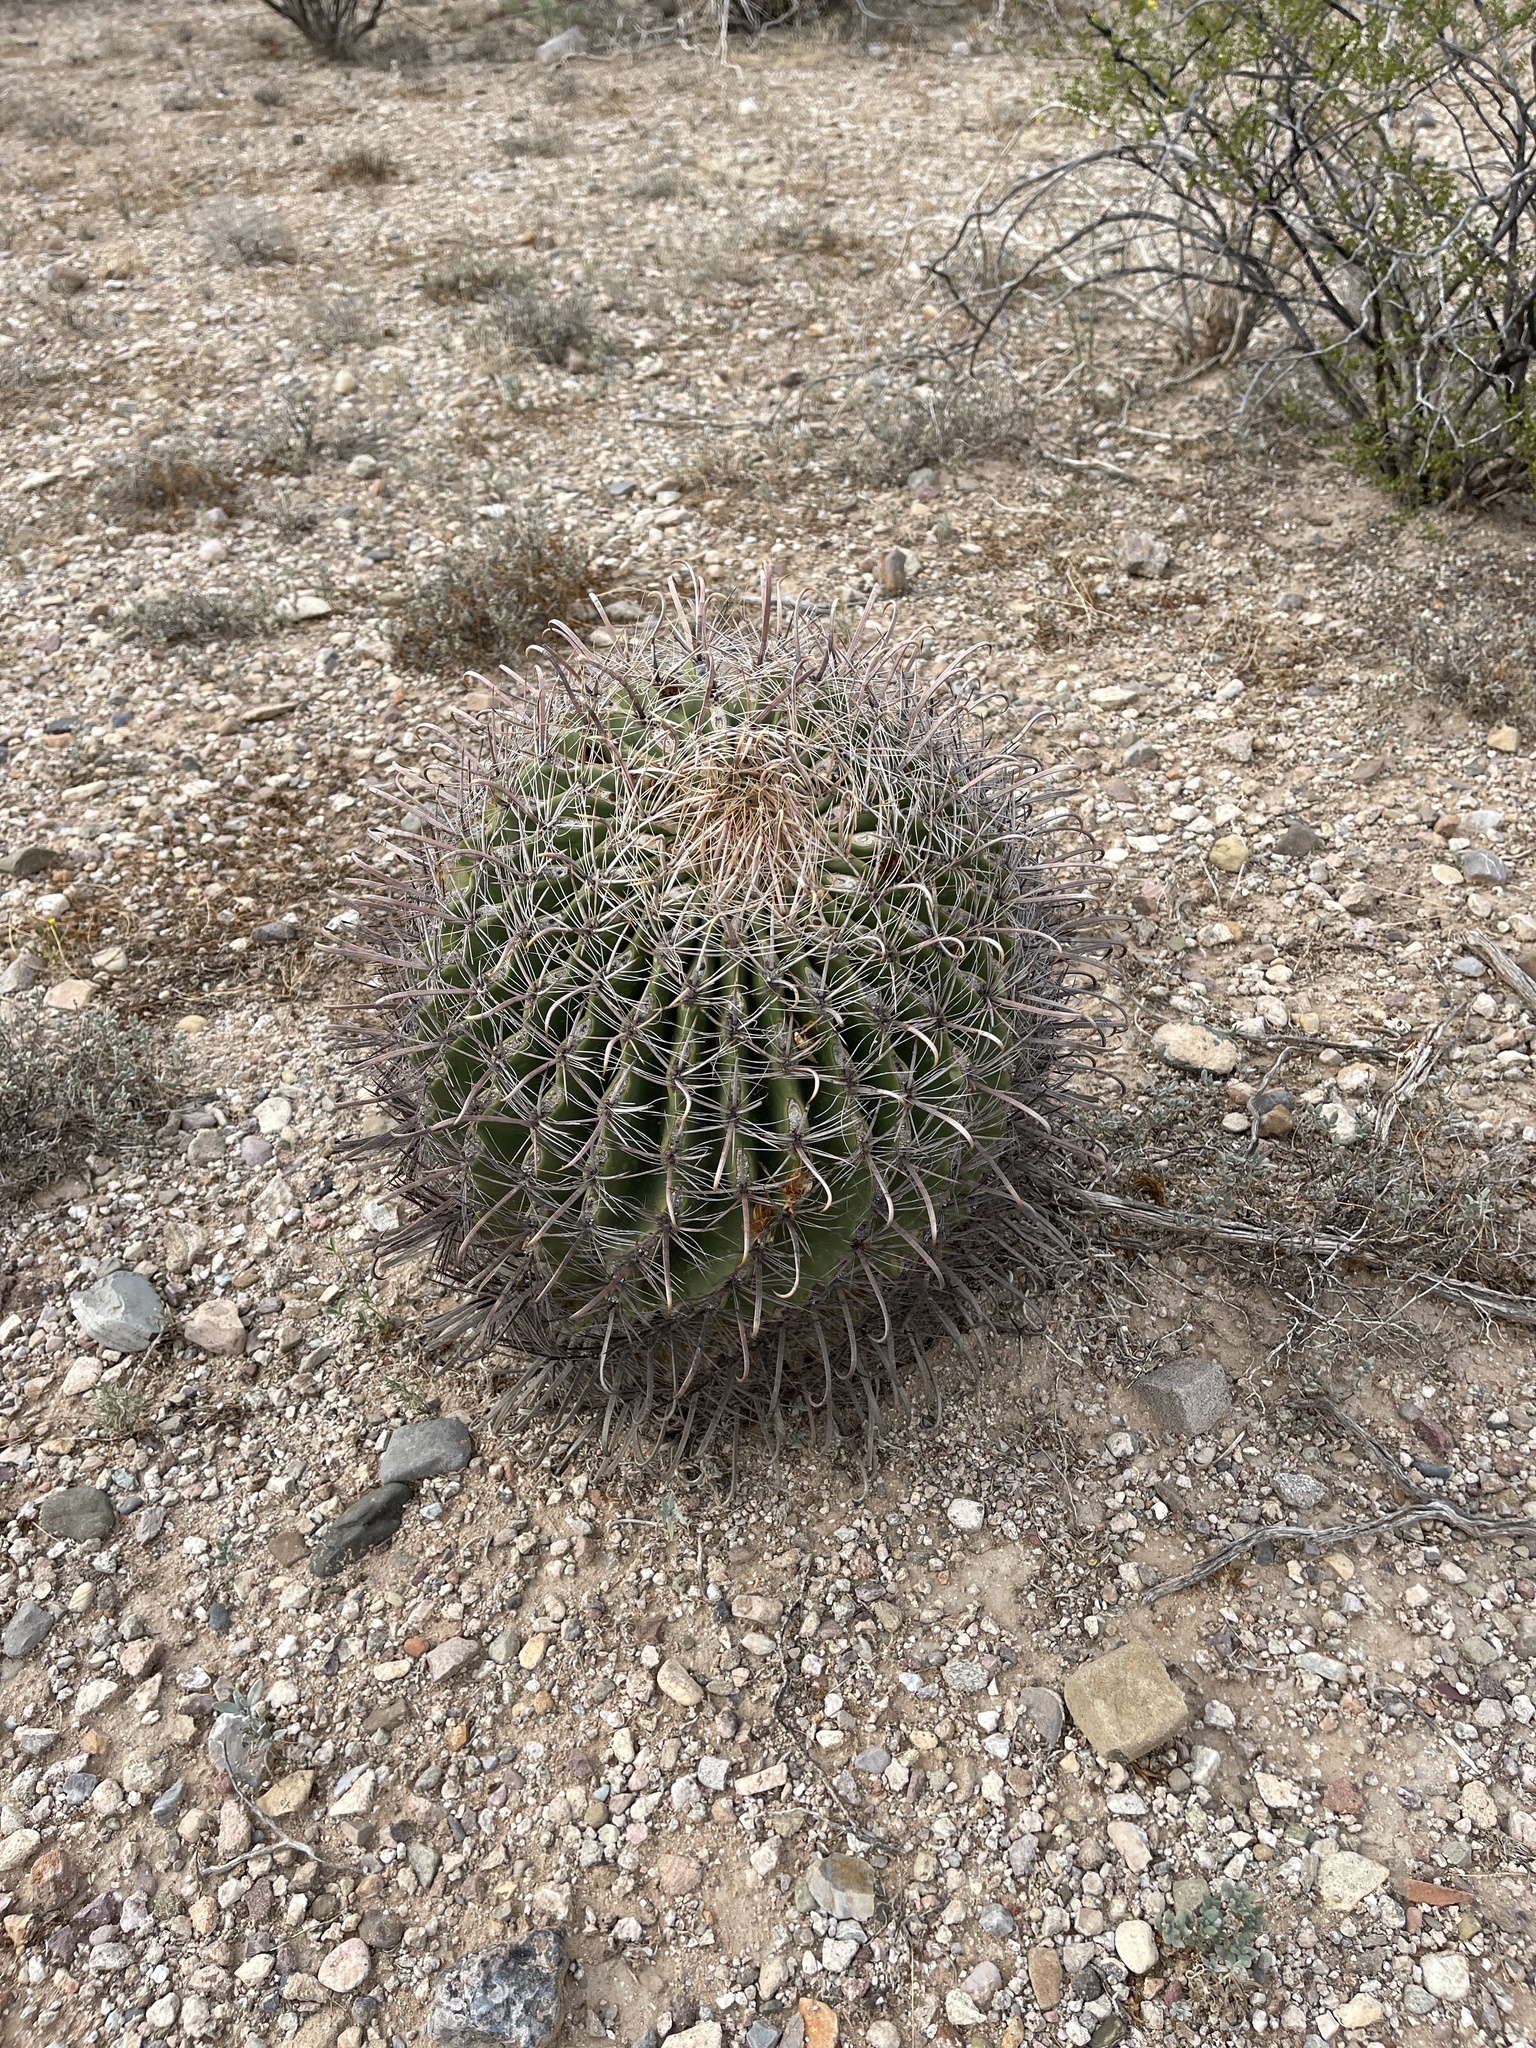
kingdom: Plantae
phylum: Tracheophyta
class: Magnoliopsida
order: Caryophyllales
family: Cactaceae
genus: Ferocactus
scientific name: Ferocactus wislizeni
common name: Candy barrel cactus
